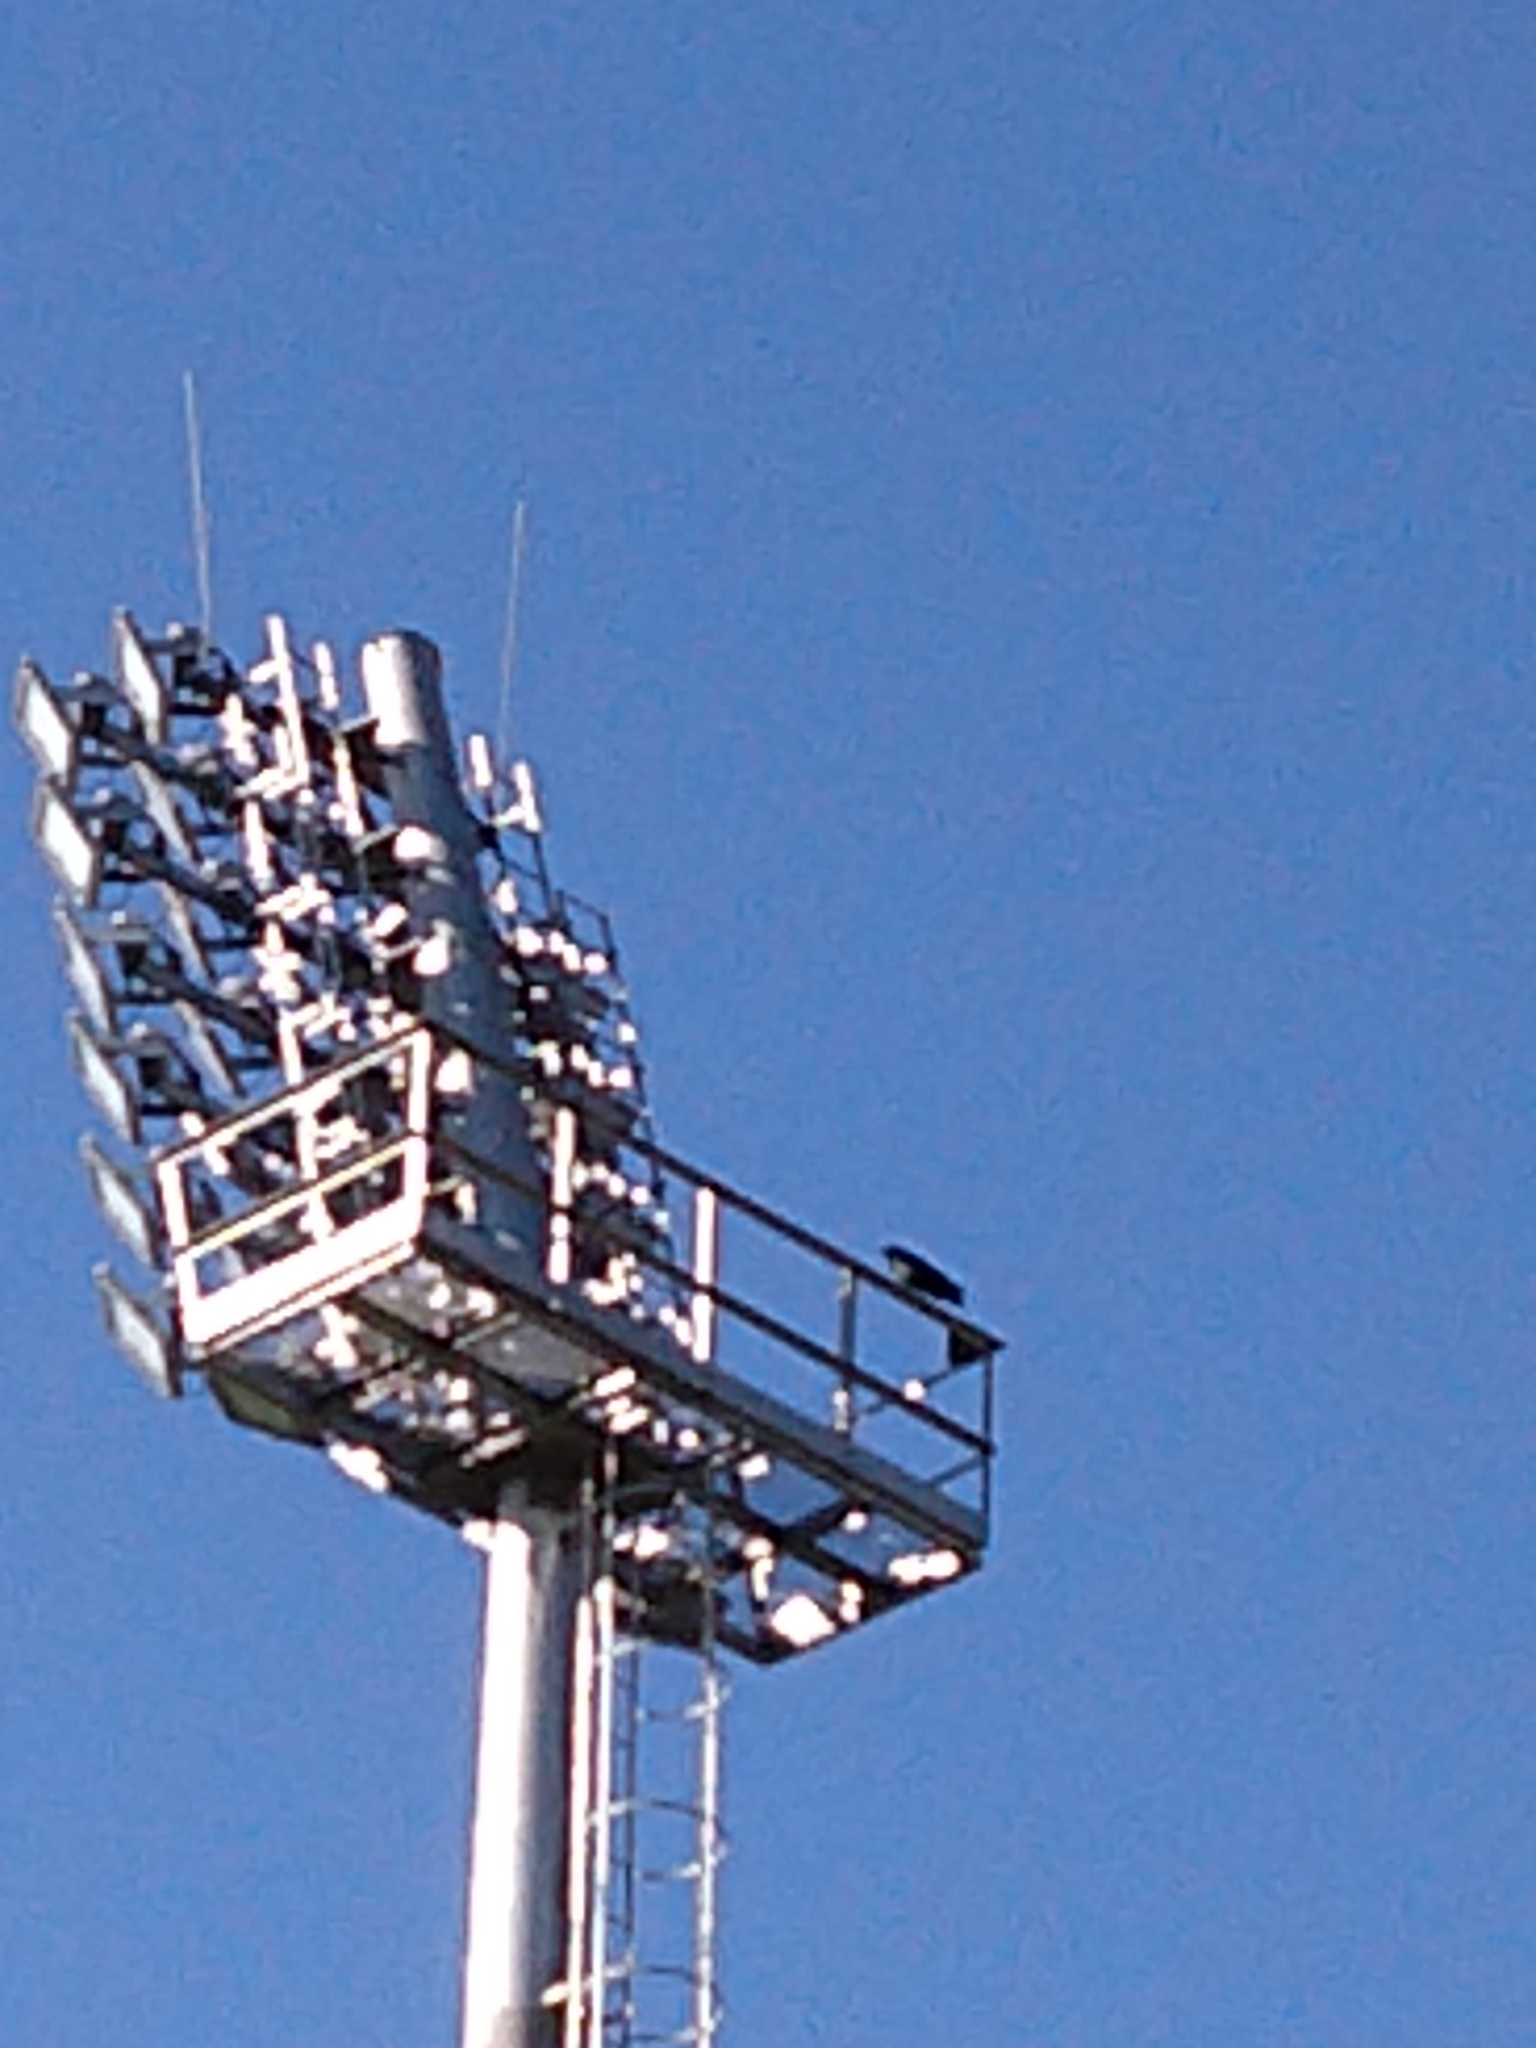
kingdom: Animalia
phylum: Chordata
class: Aves
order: Passeriformes
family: Corvidae
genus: Corvus
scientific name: Corvus albus
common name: Pied crow
